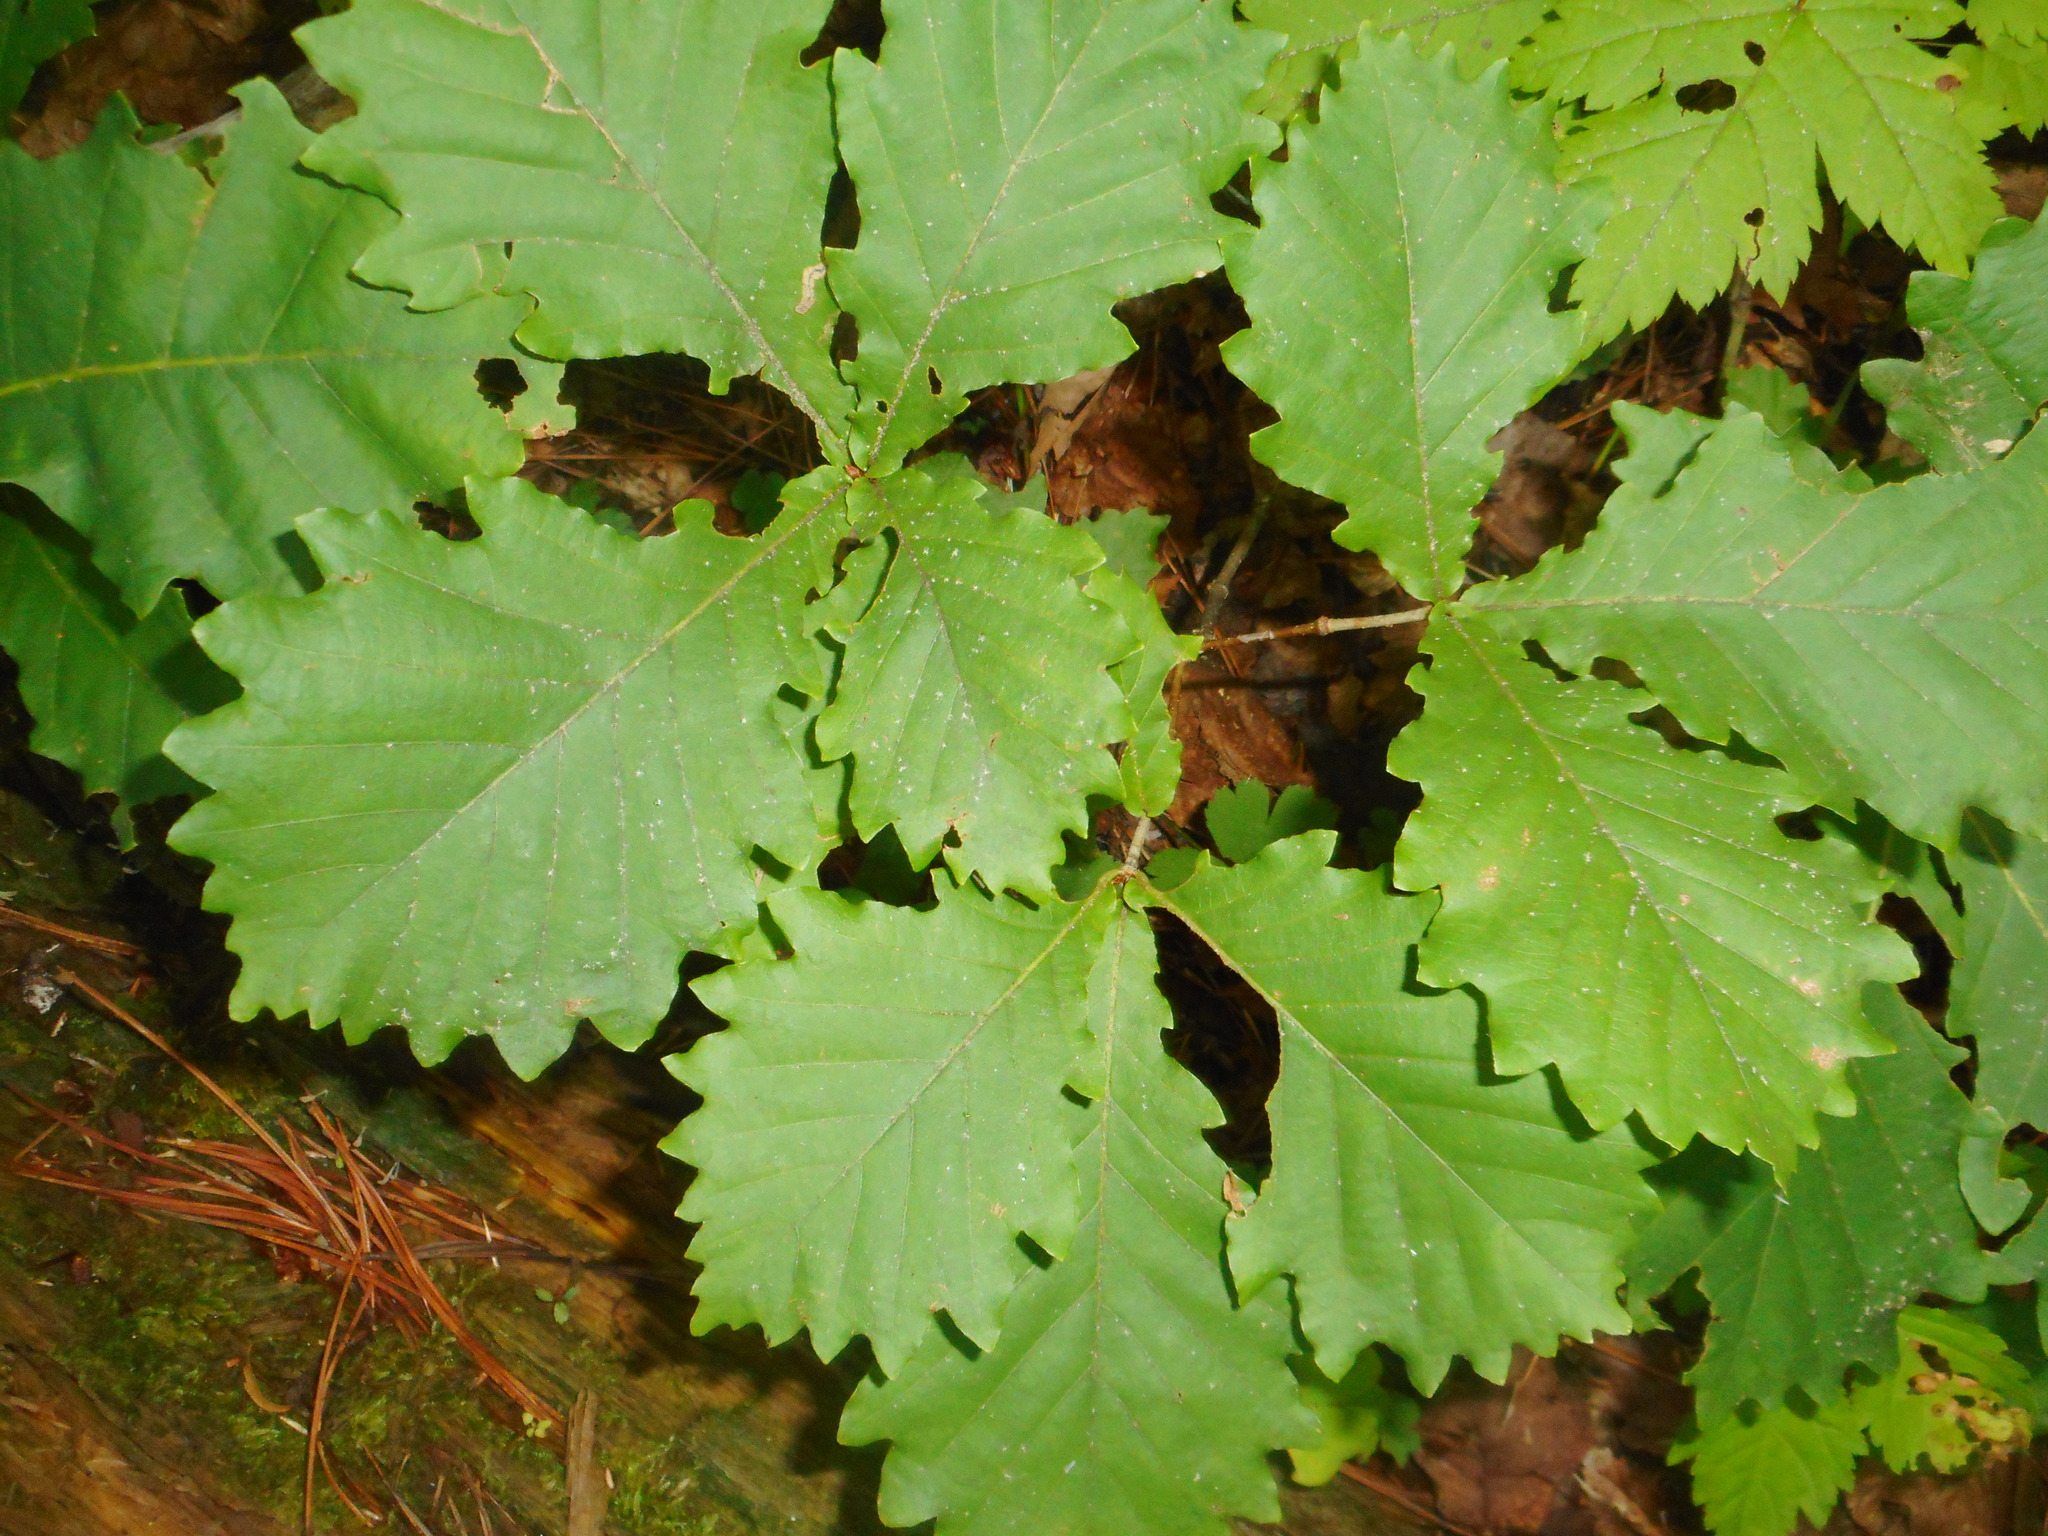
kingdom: Plantae
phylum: Tracheophyta
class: Magnoliopsida
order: Fagales
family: Fagaceae
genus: Quercus
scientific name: Quercus mongolica
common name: Mongolian oak
